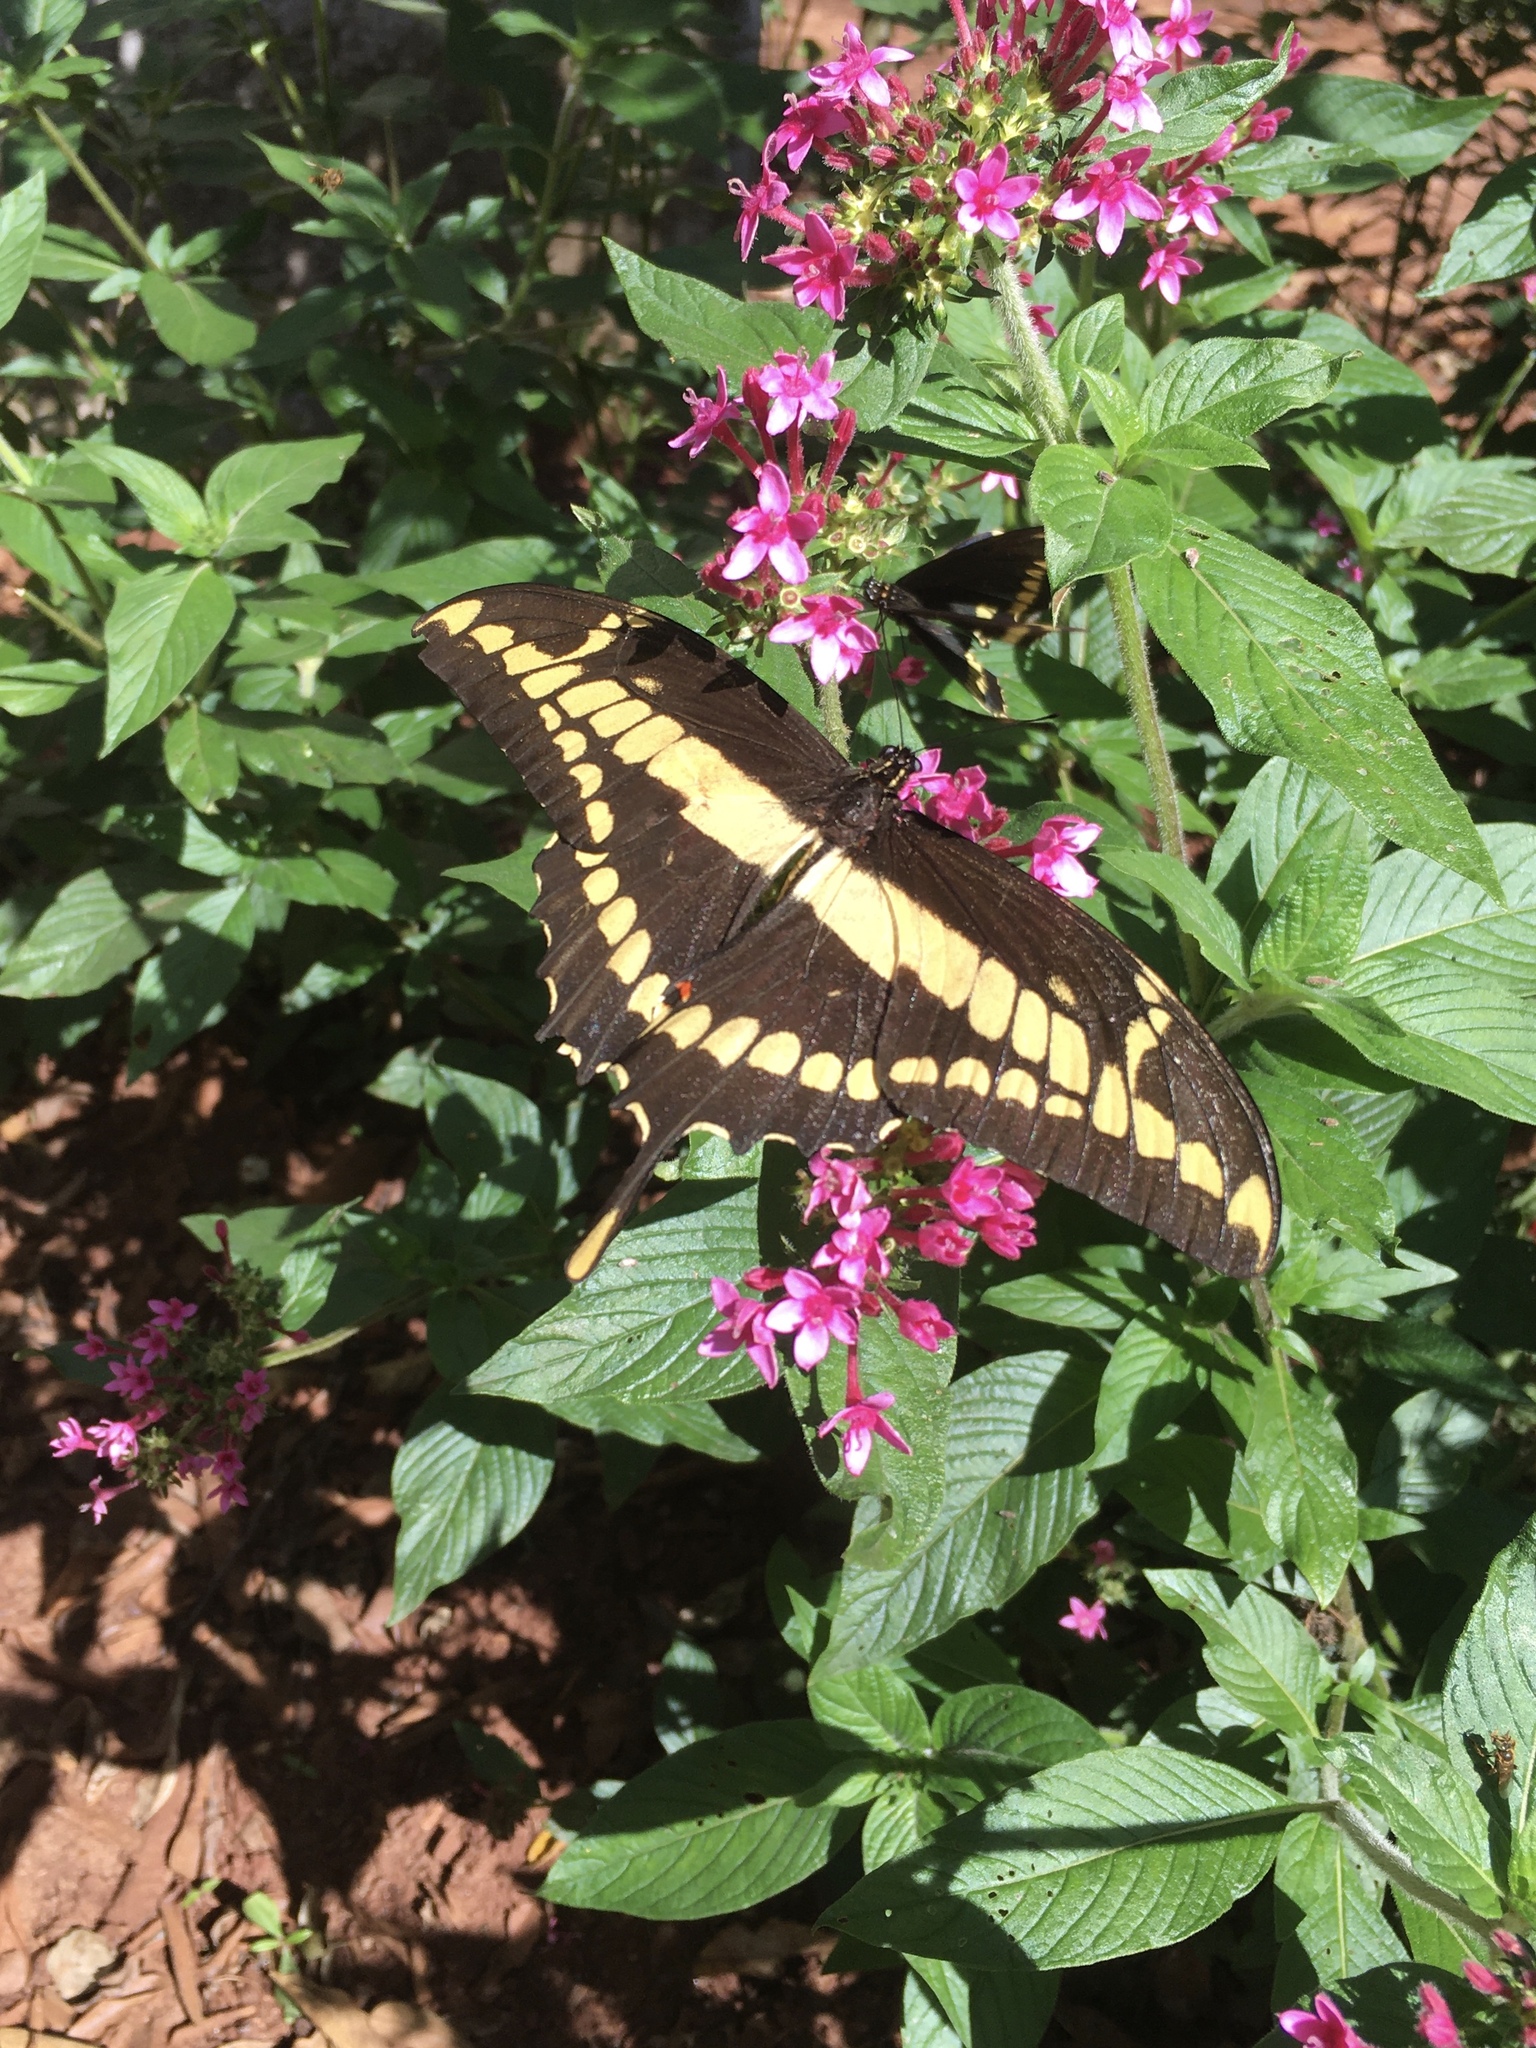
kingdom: Animalia
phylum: Arthropoda
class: Insecta
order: Lepidoptera
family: Papilionidae
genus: Papilio
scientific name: Papilio thoas
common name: King swallowtail
